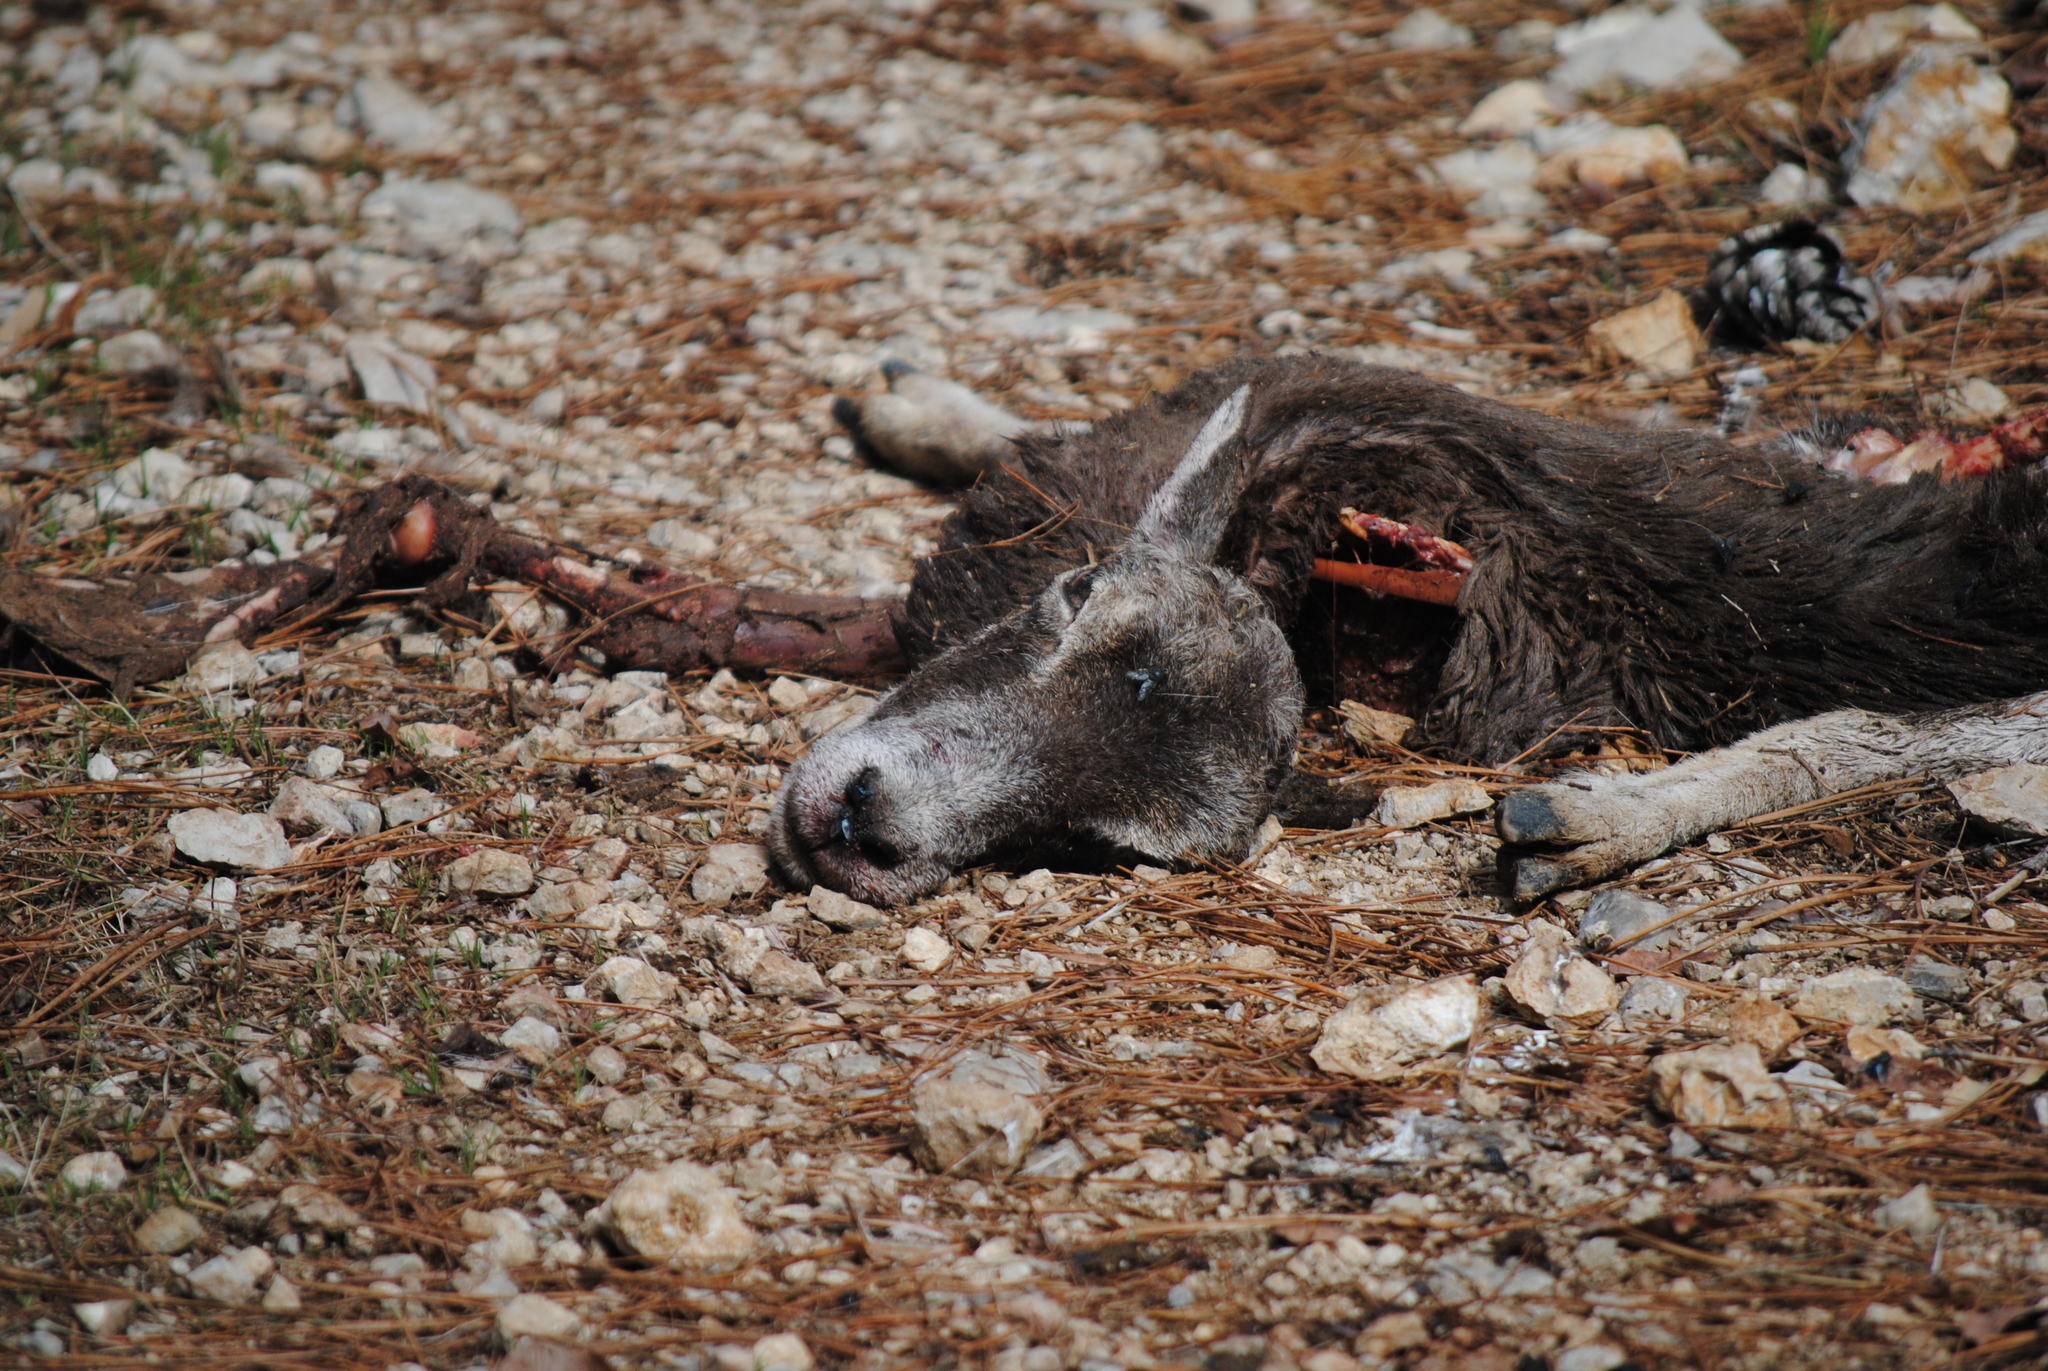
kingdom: Animalia
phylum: Chordata
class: Mammalia
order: Artiodactyla
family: Bovidae
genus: Ovis
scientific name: Ovis aries
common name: Domestic sheep
